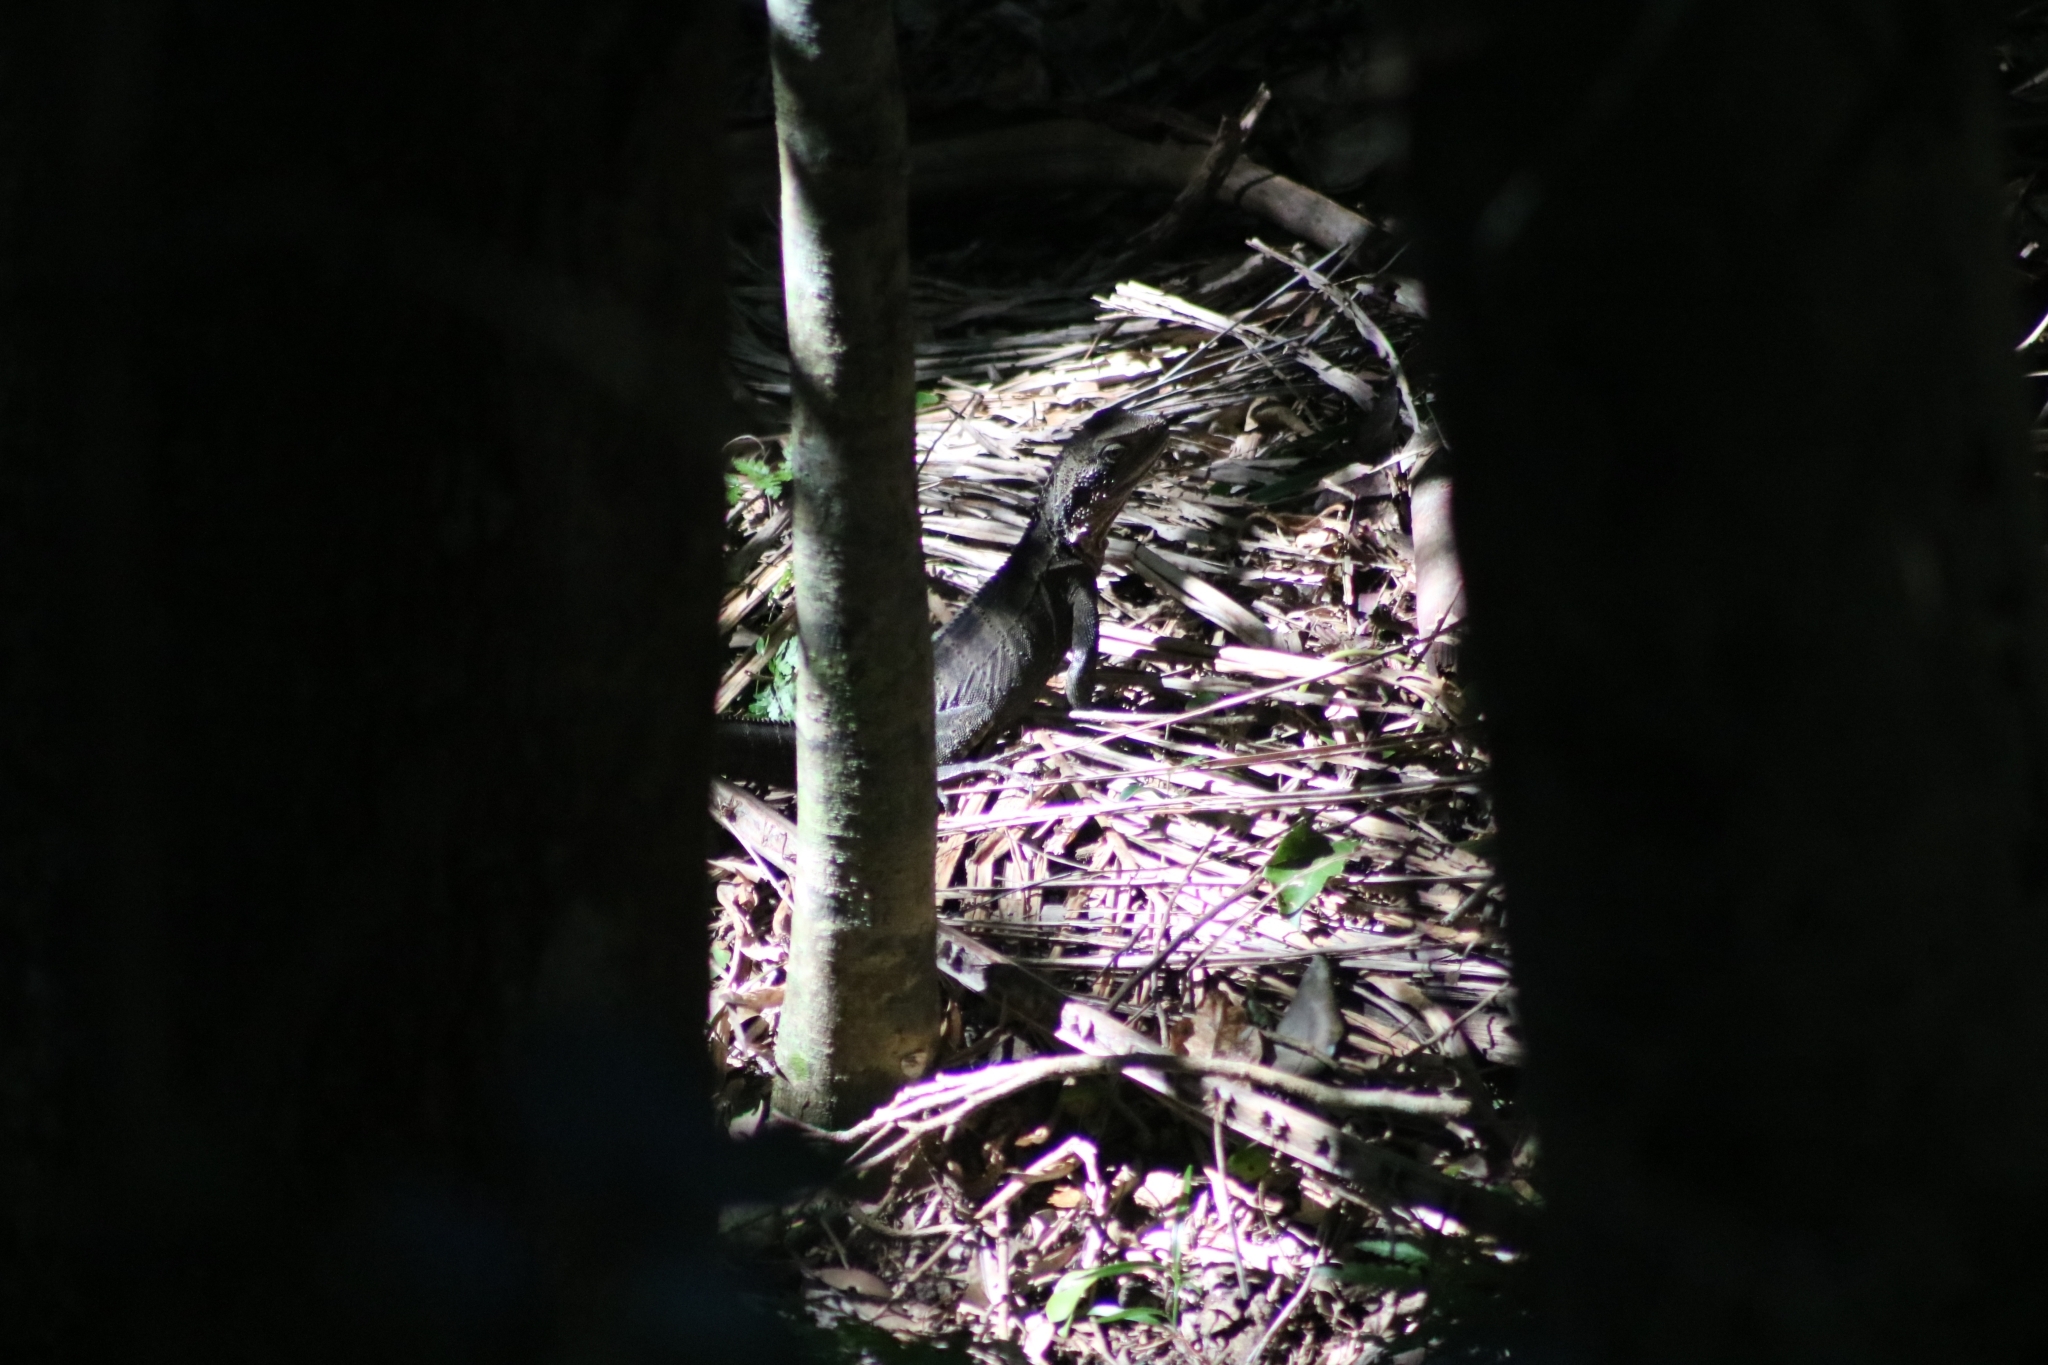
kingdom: Animalia
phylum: Chordata
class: Squamata
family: Agamidae
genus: Intellagama
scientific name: Intellagama lesueurii
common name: Eastern water dragon
